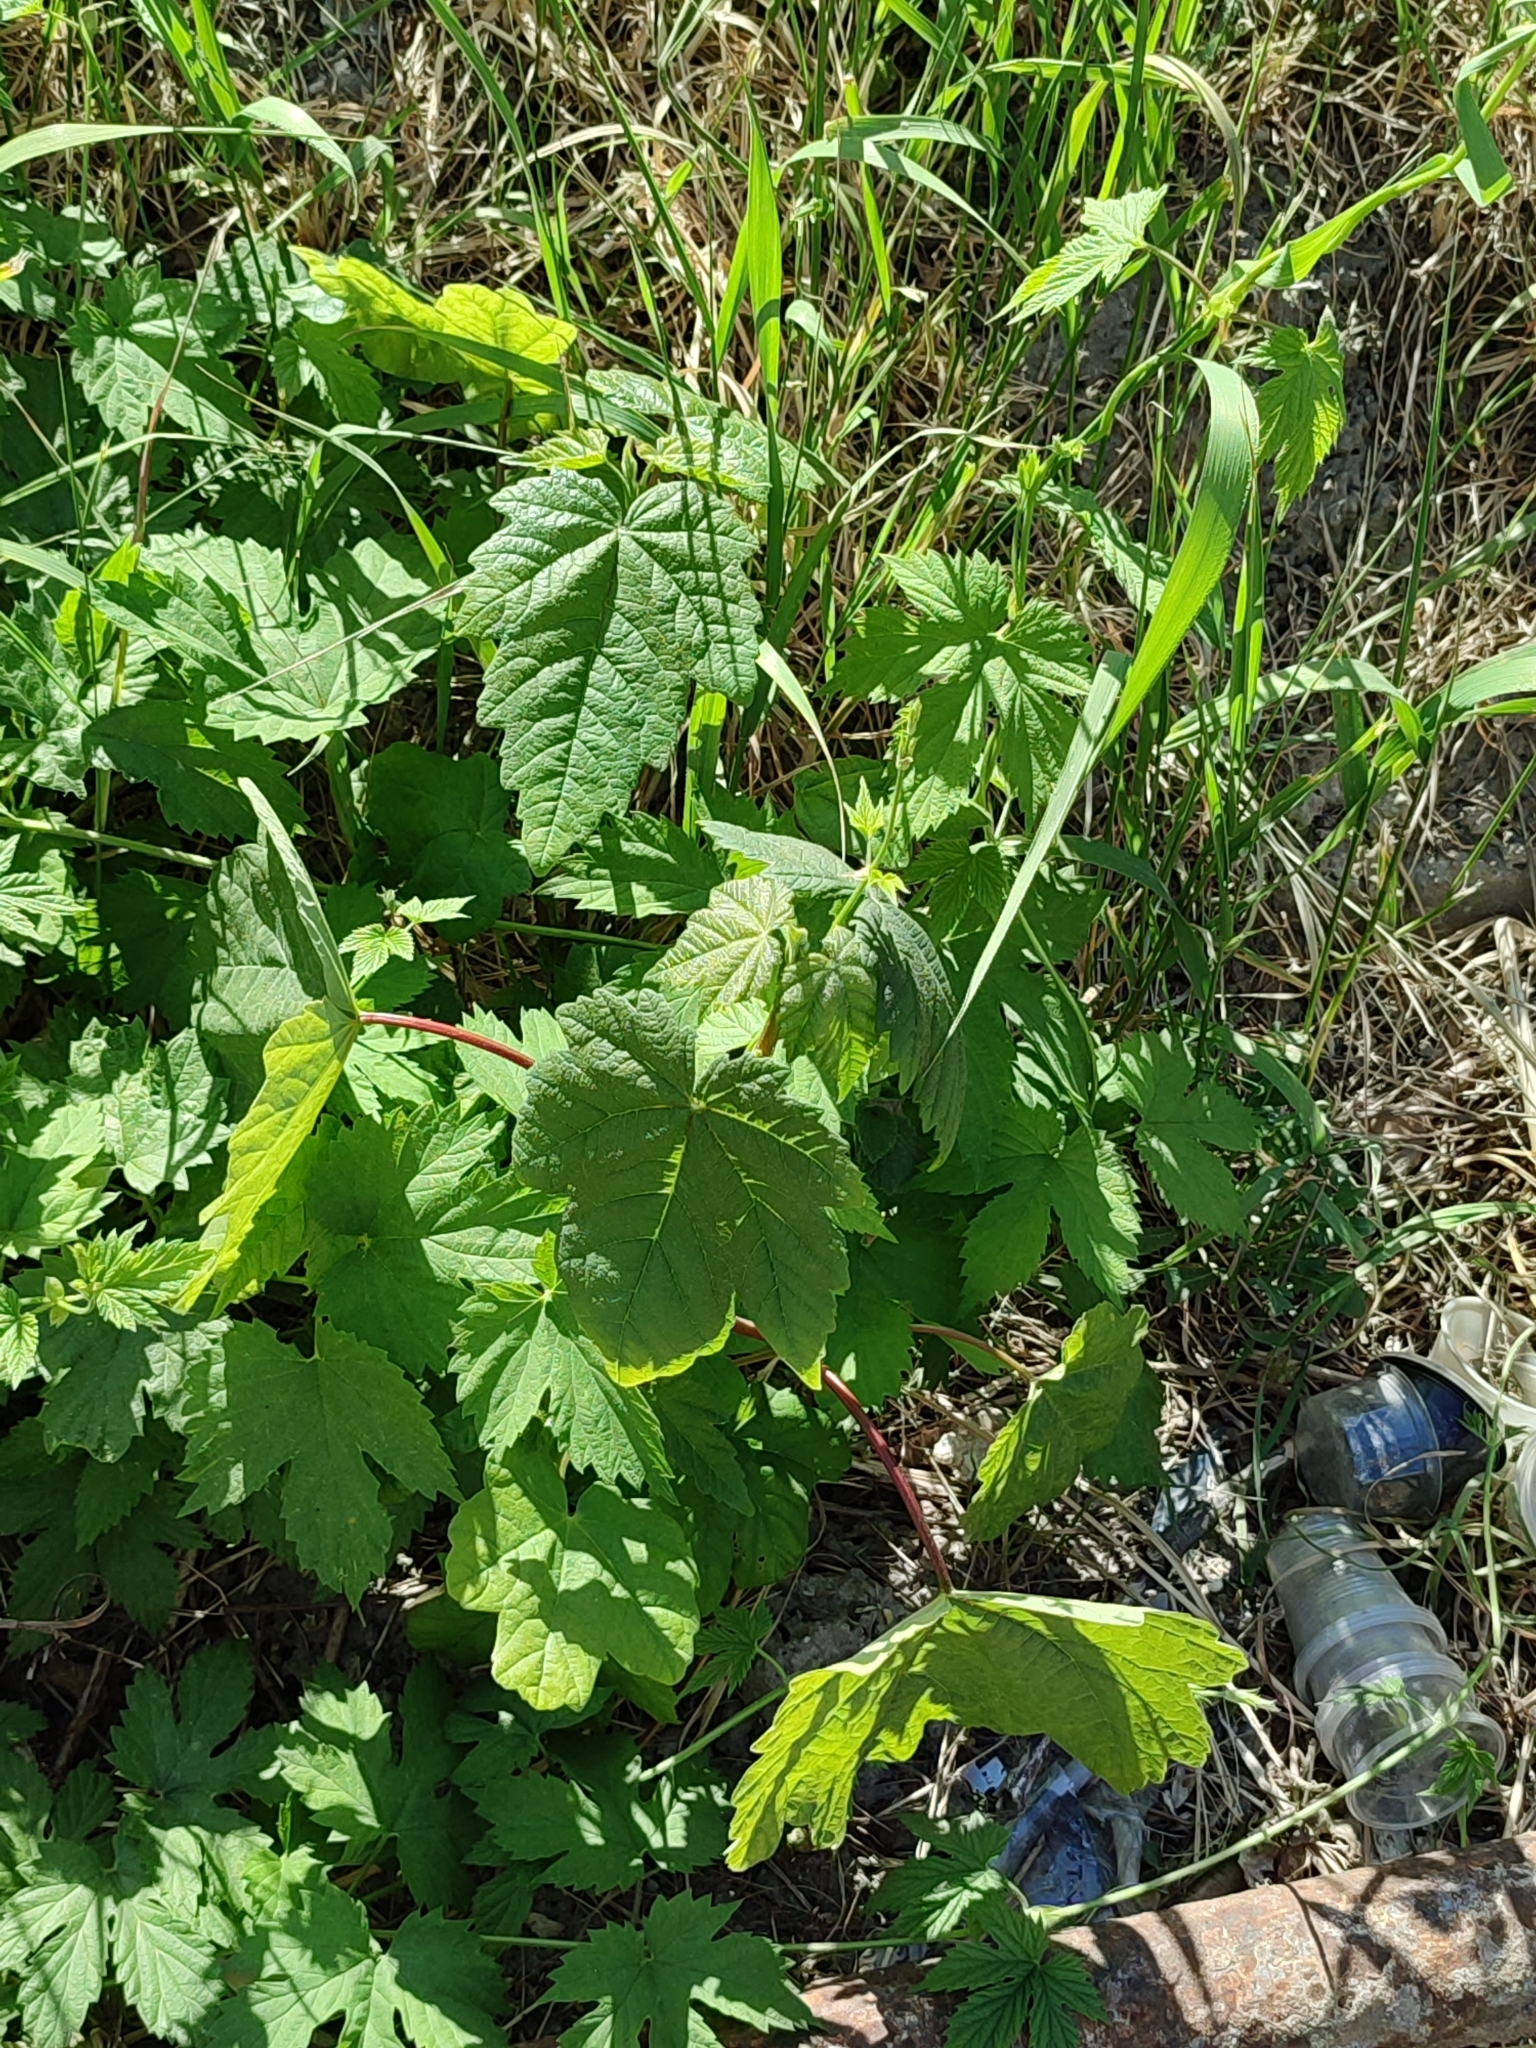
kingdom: Plantae
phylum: Tracheophyta
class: Magnoliopsida
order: Sapindales
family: Sapindaceae
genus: Acer
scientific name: Acer pseudoplatanus
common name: Sycamore
